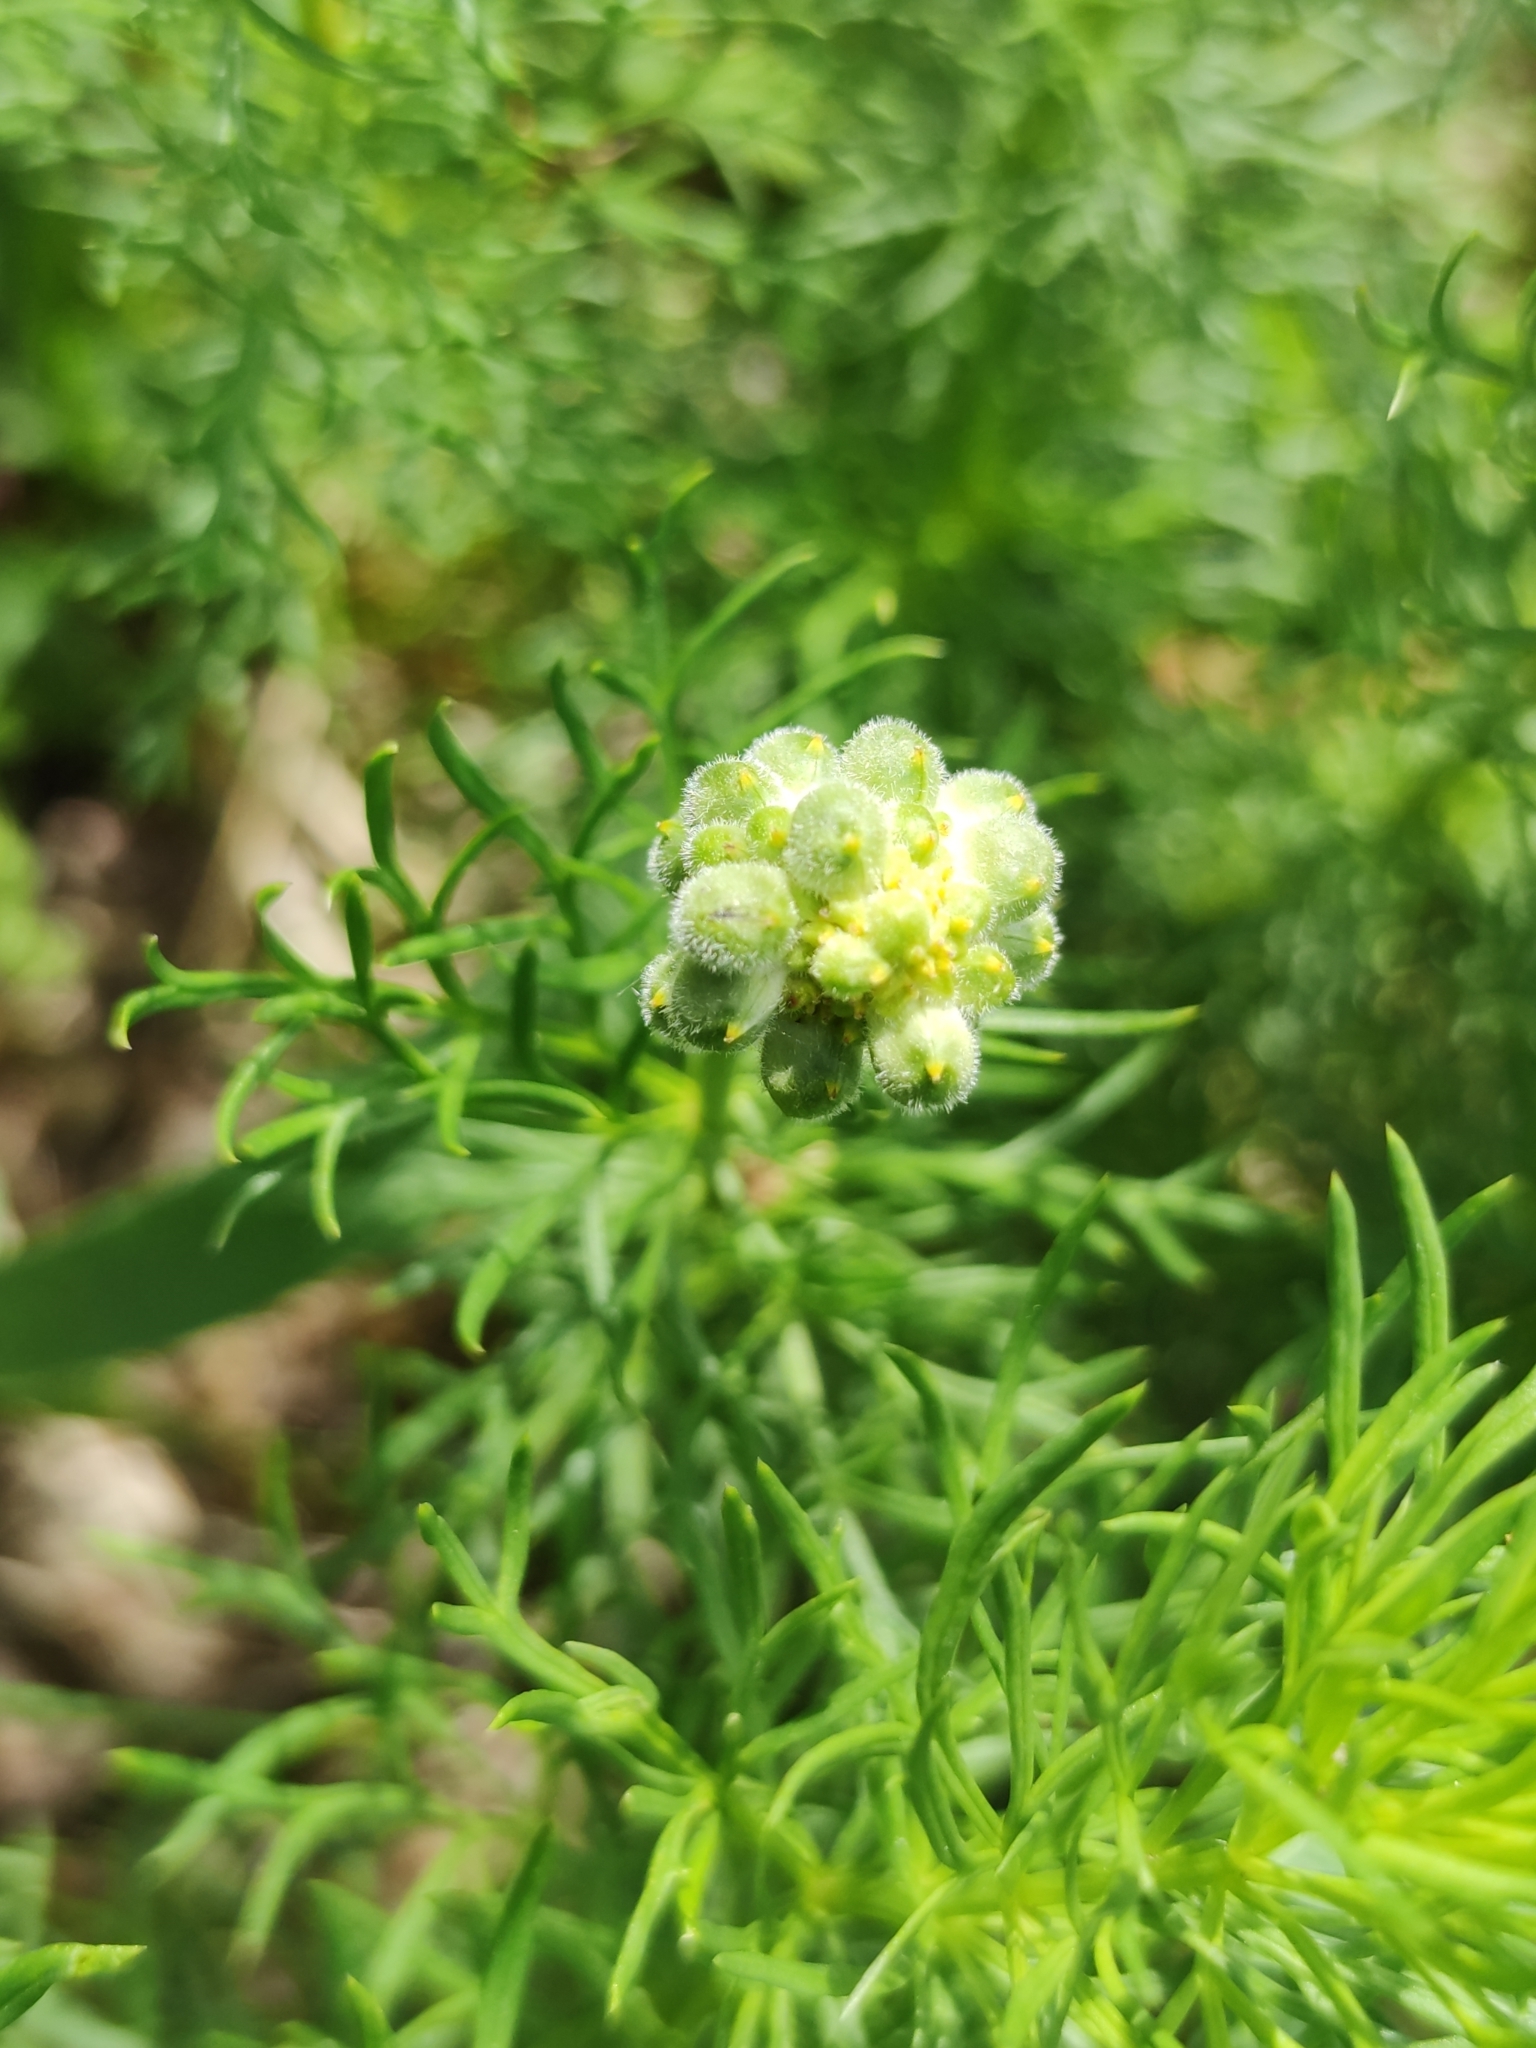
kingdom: Plantae
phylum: Tracheophyta
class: Magnoliopsida
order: Ranunculales
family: Ranunculaceae
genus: Adonis
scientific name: Adonis vernalis
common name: Yellow pheasants-eye
